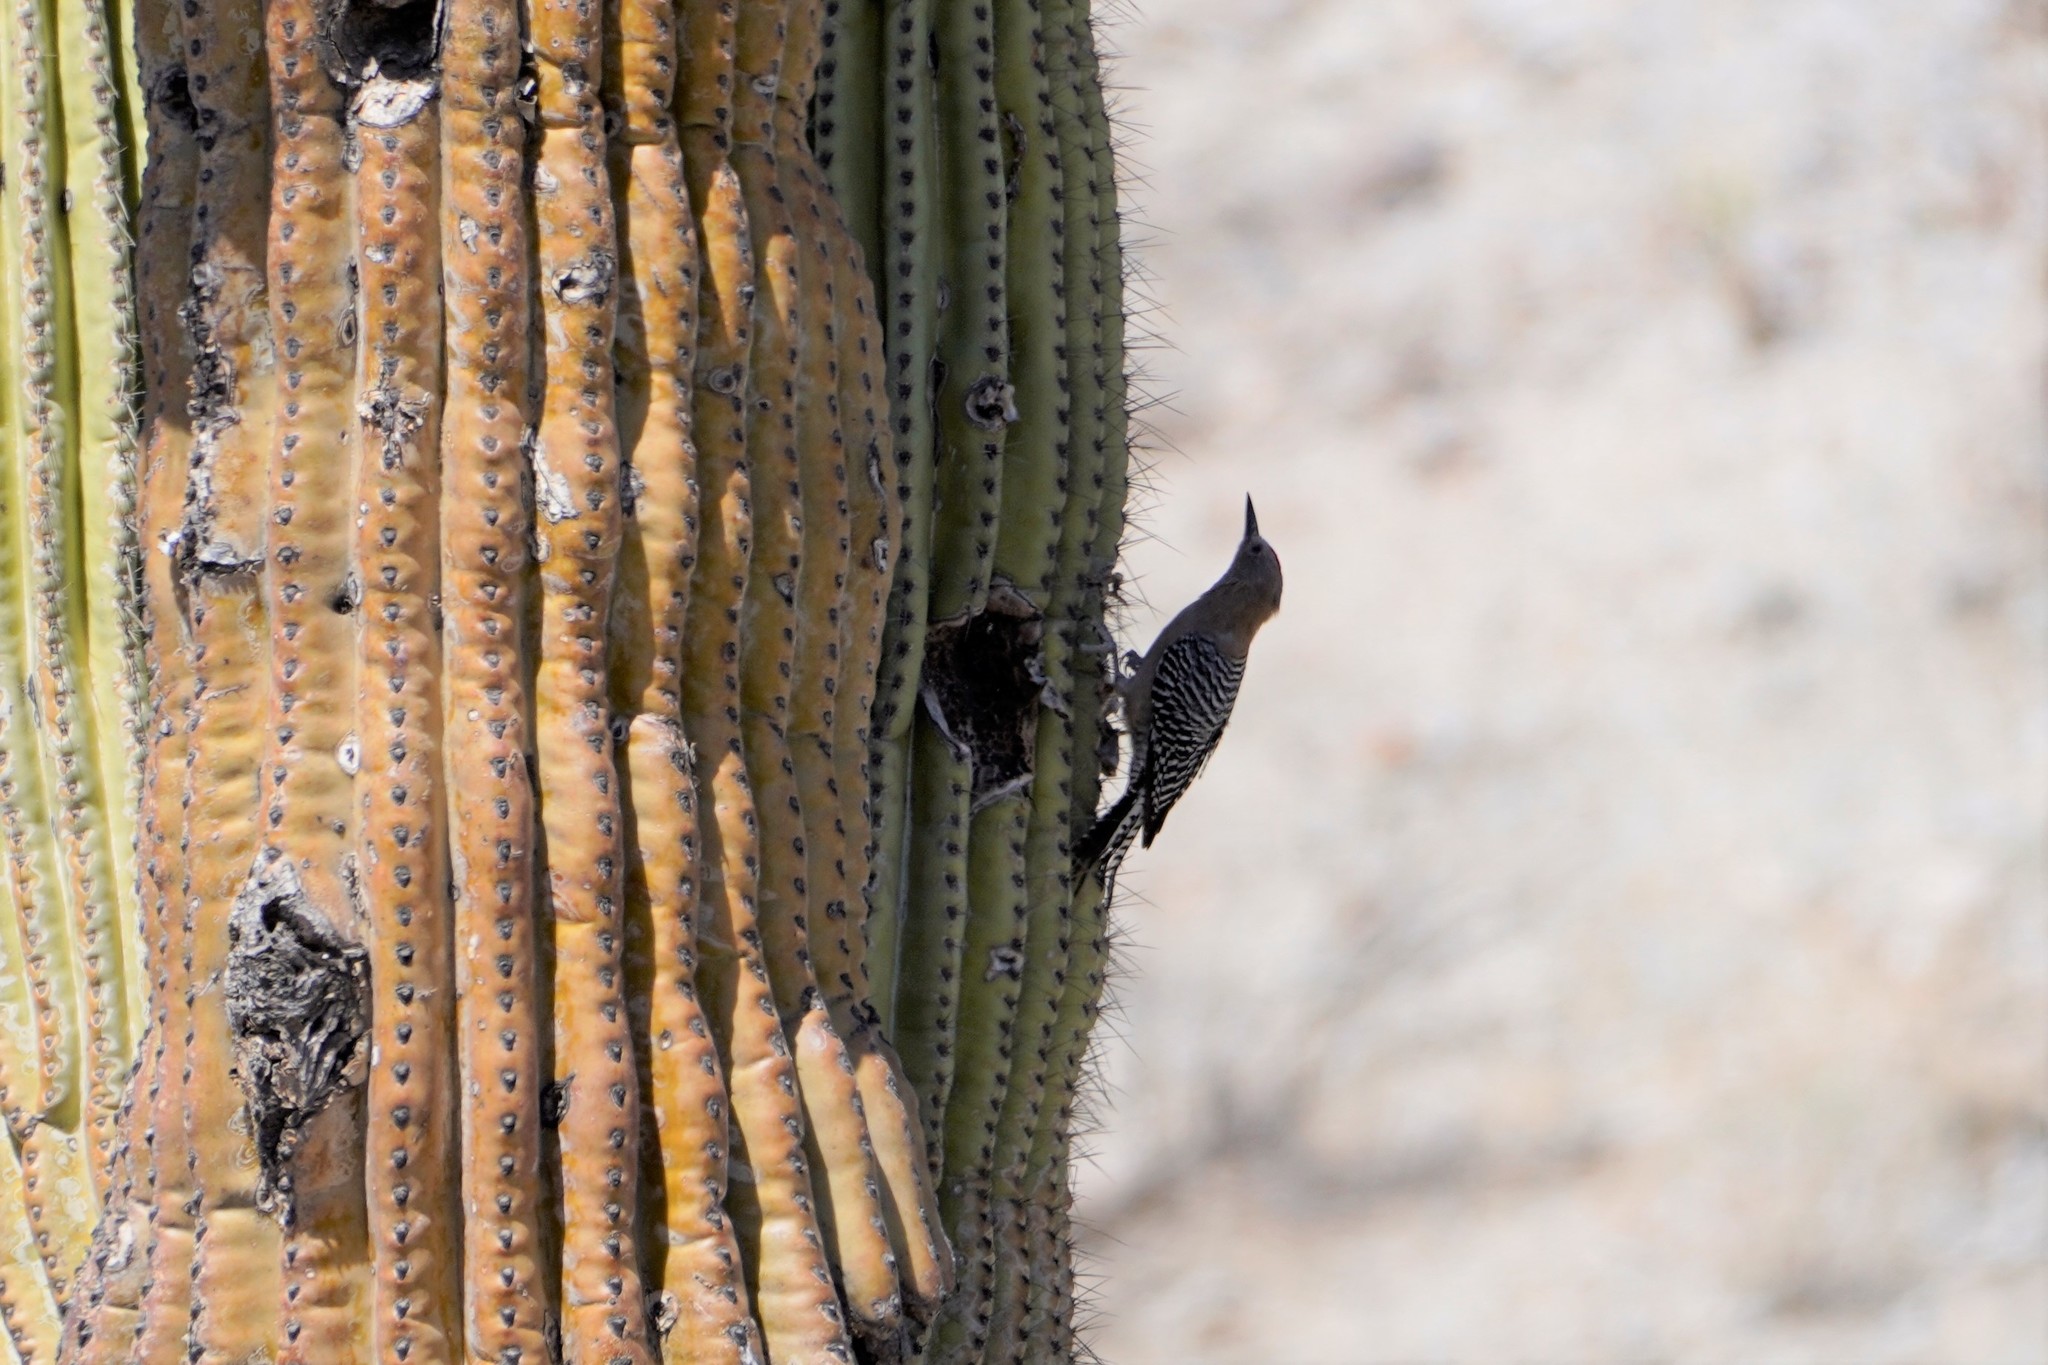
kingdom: Animalia
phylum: Chordata
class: Aves
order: Piciformes
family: Picidae
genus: Melanerpes
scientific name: Melanerpes uropygialis
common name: Gila woodpecker
